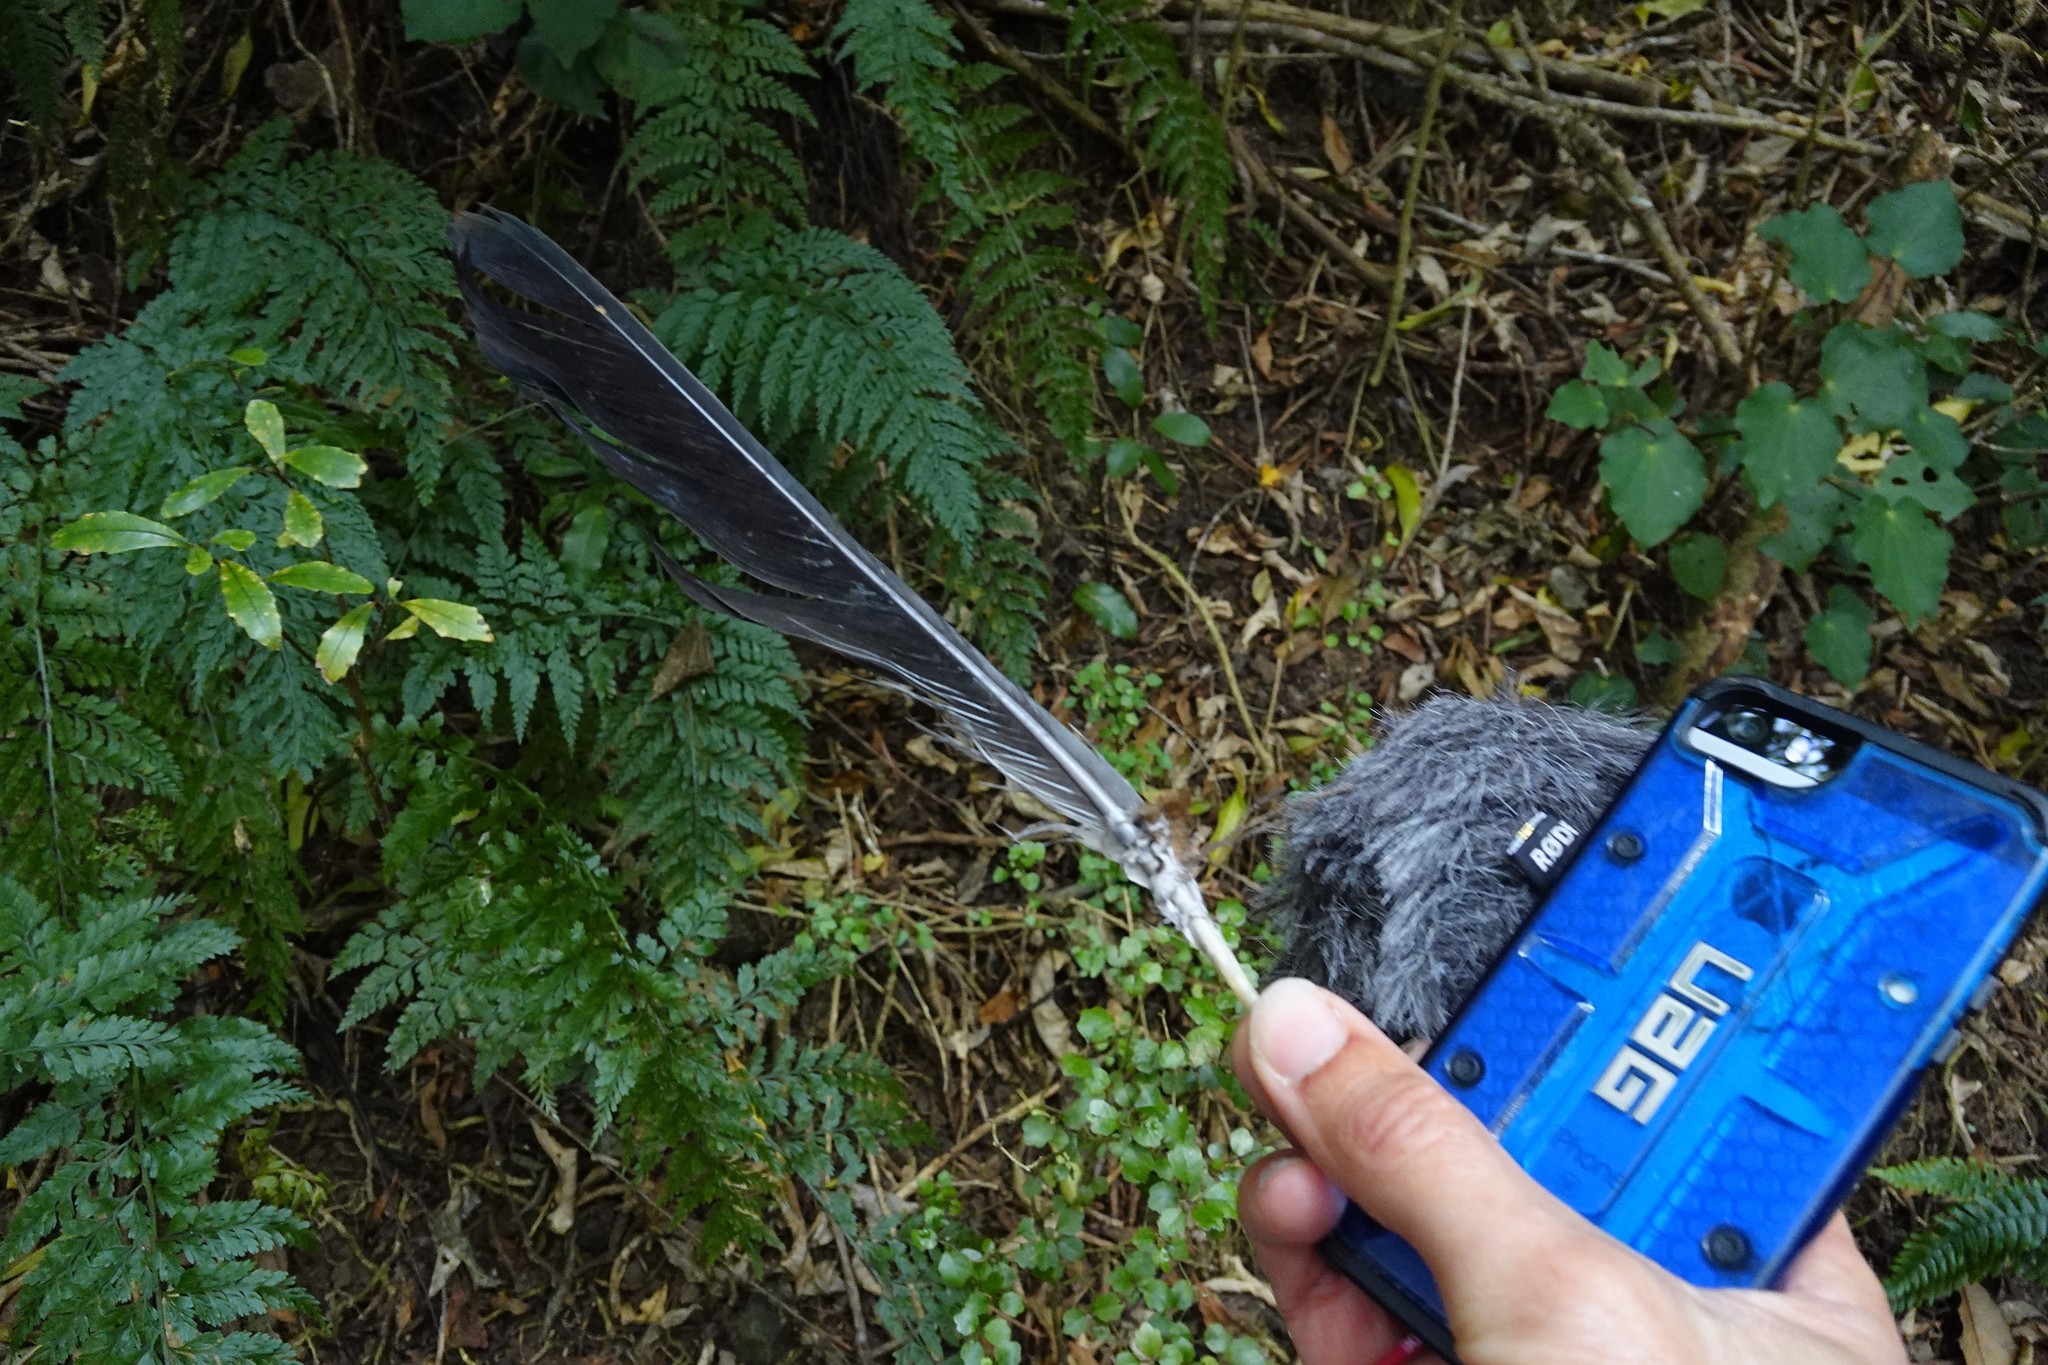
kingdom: Animalia
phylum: Chordata
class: Aves
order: Columbiformes
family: Columbidae
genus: Hemiphaga
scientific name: Hemiphaga novaeseelandiae
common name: New zealand pigeon
